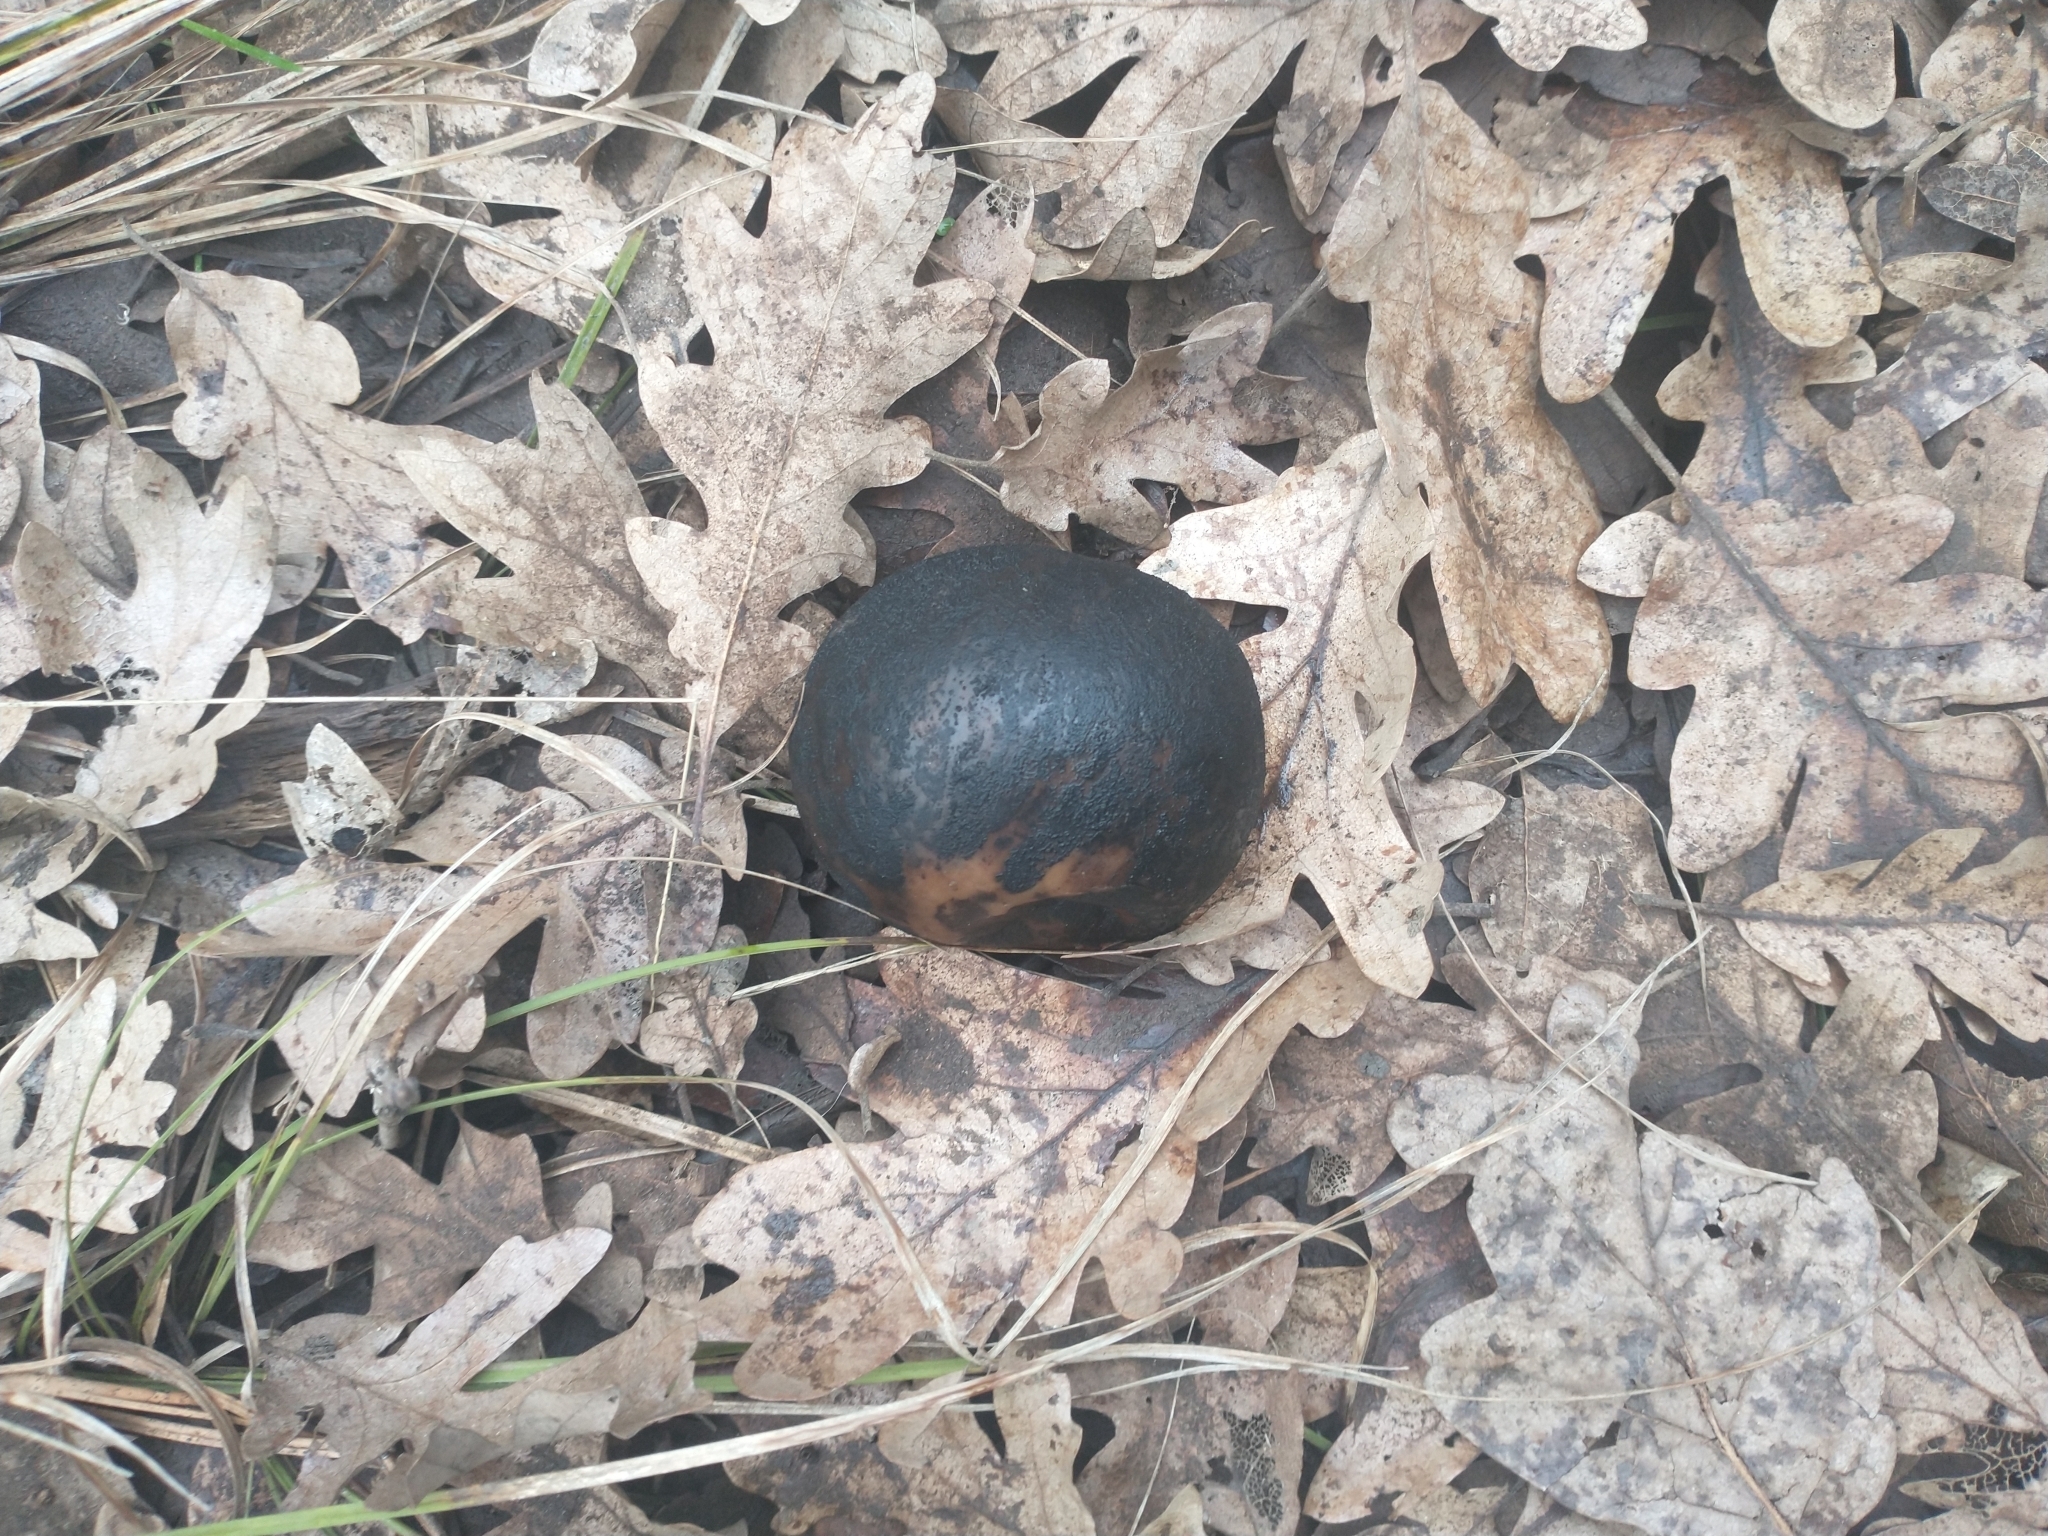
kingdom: Animalia
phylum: Arthropoda
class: Insecta
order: Hymenoptera
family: Cynipidae
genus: Andricus
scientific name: Andricus quercuscalifornicus
